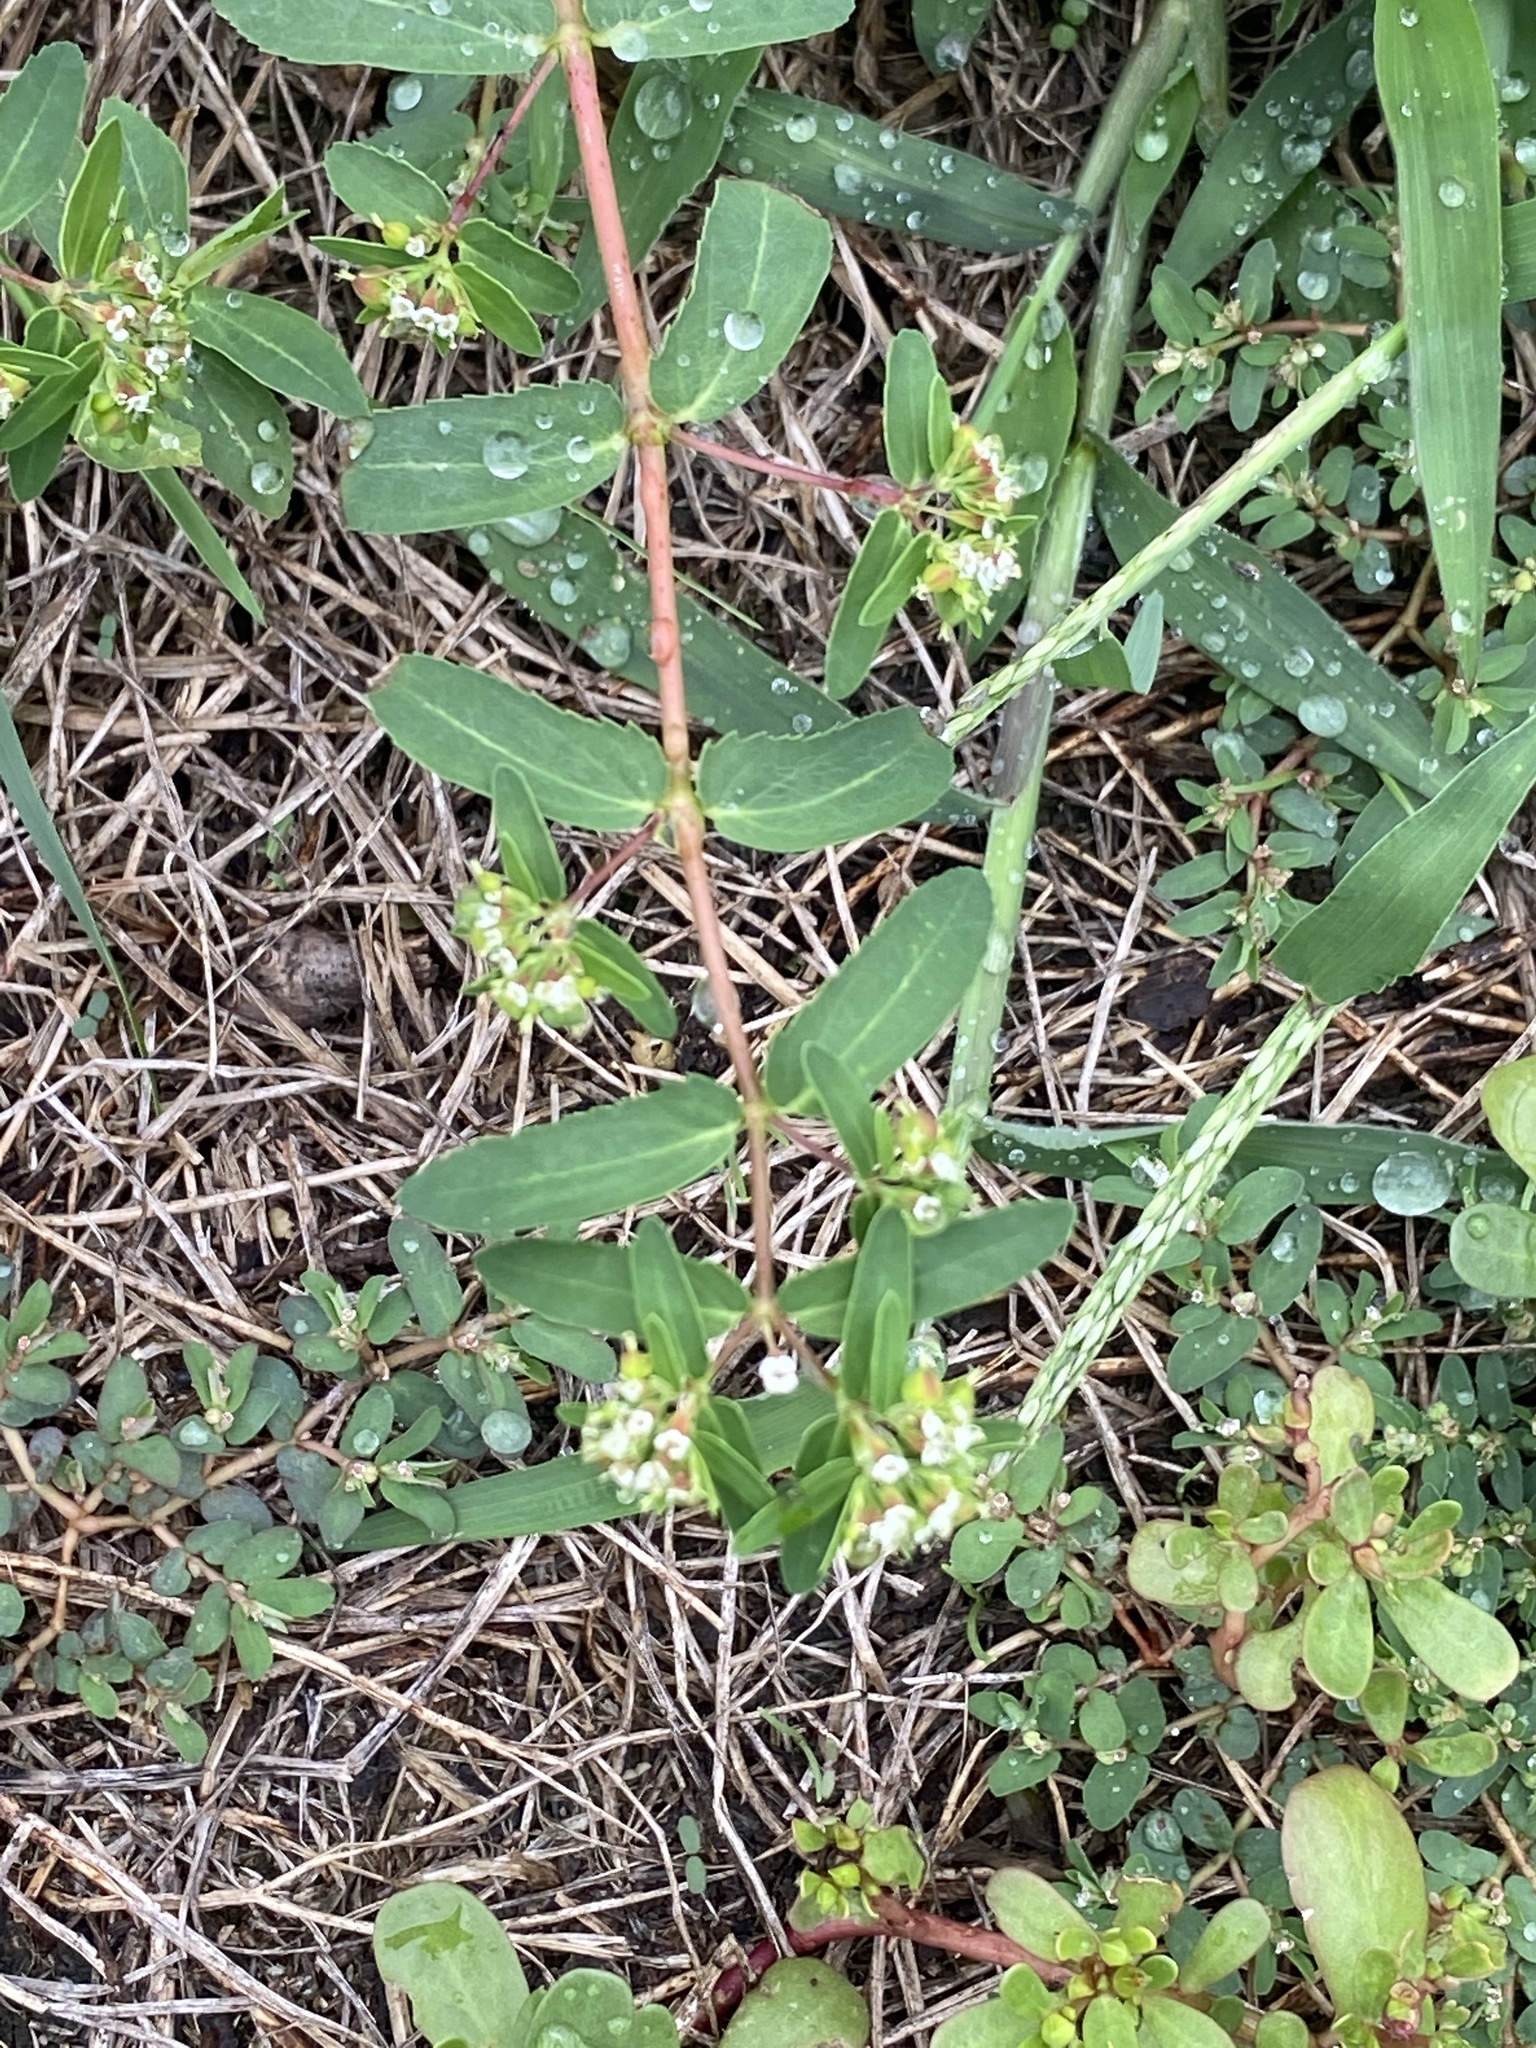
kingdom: Plantae
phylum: Tracheophyta
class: Magnoliopsida
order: Malpighiales
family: Euphorbiaceae
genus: Euphorbia
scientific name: Euphorbia nutans
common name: Eyebane
